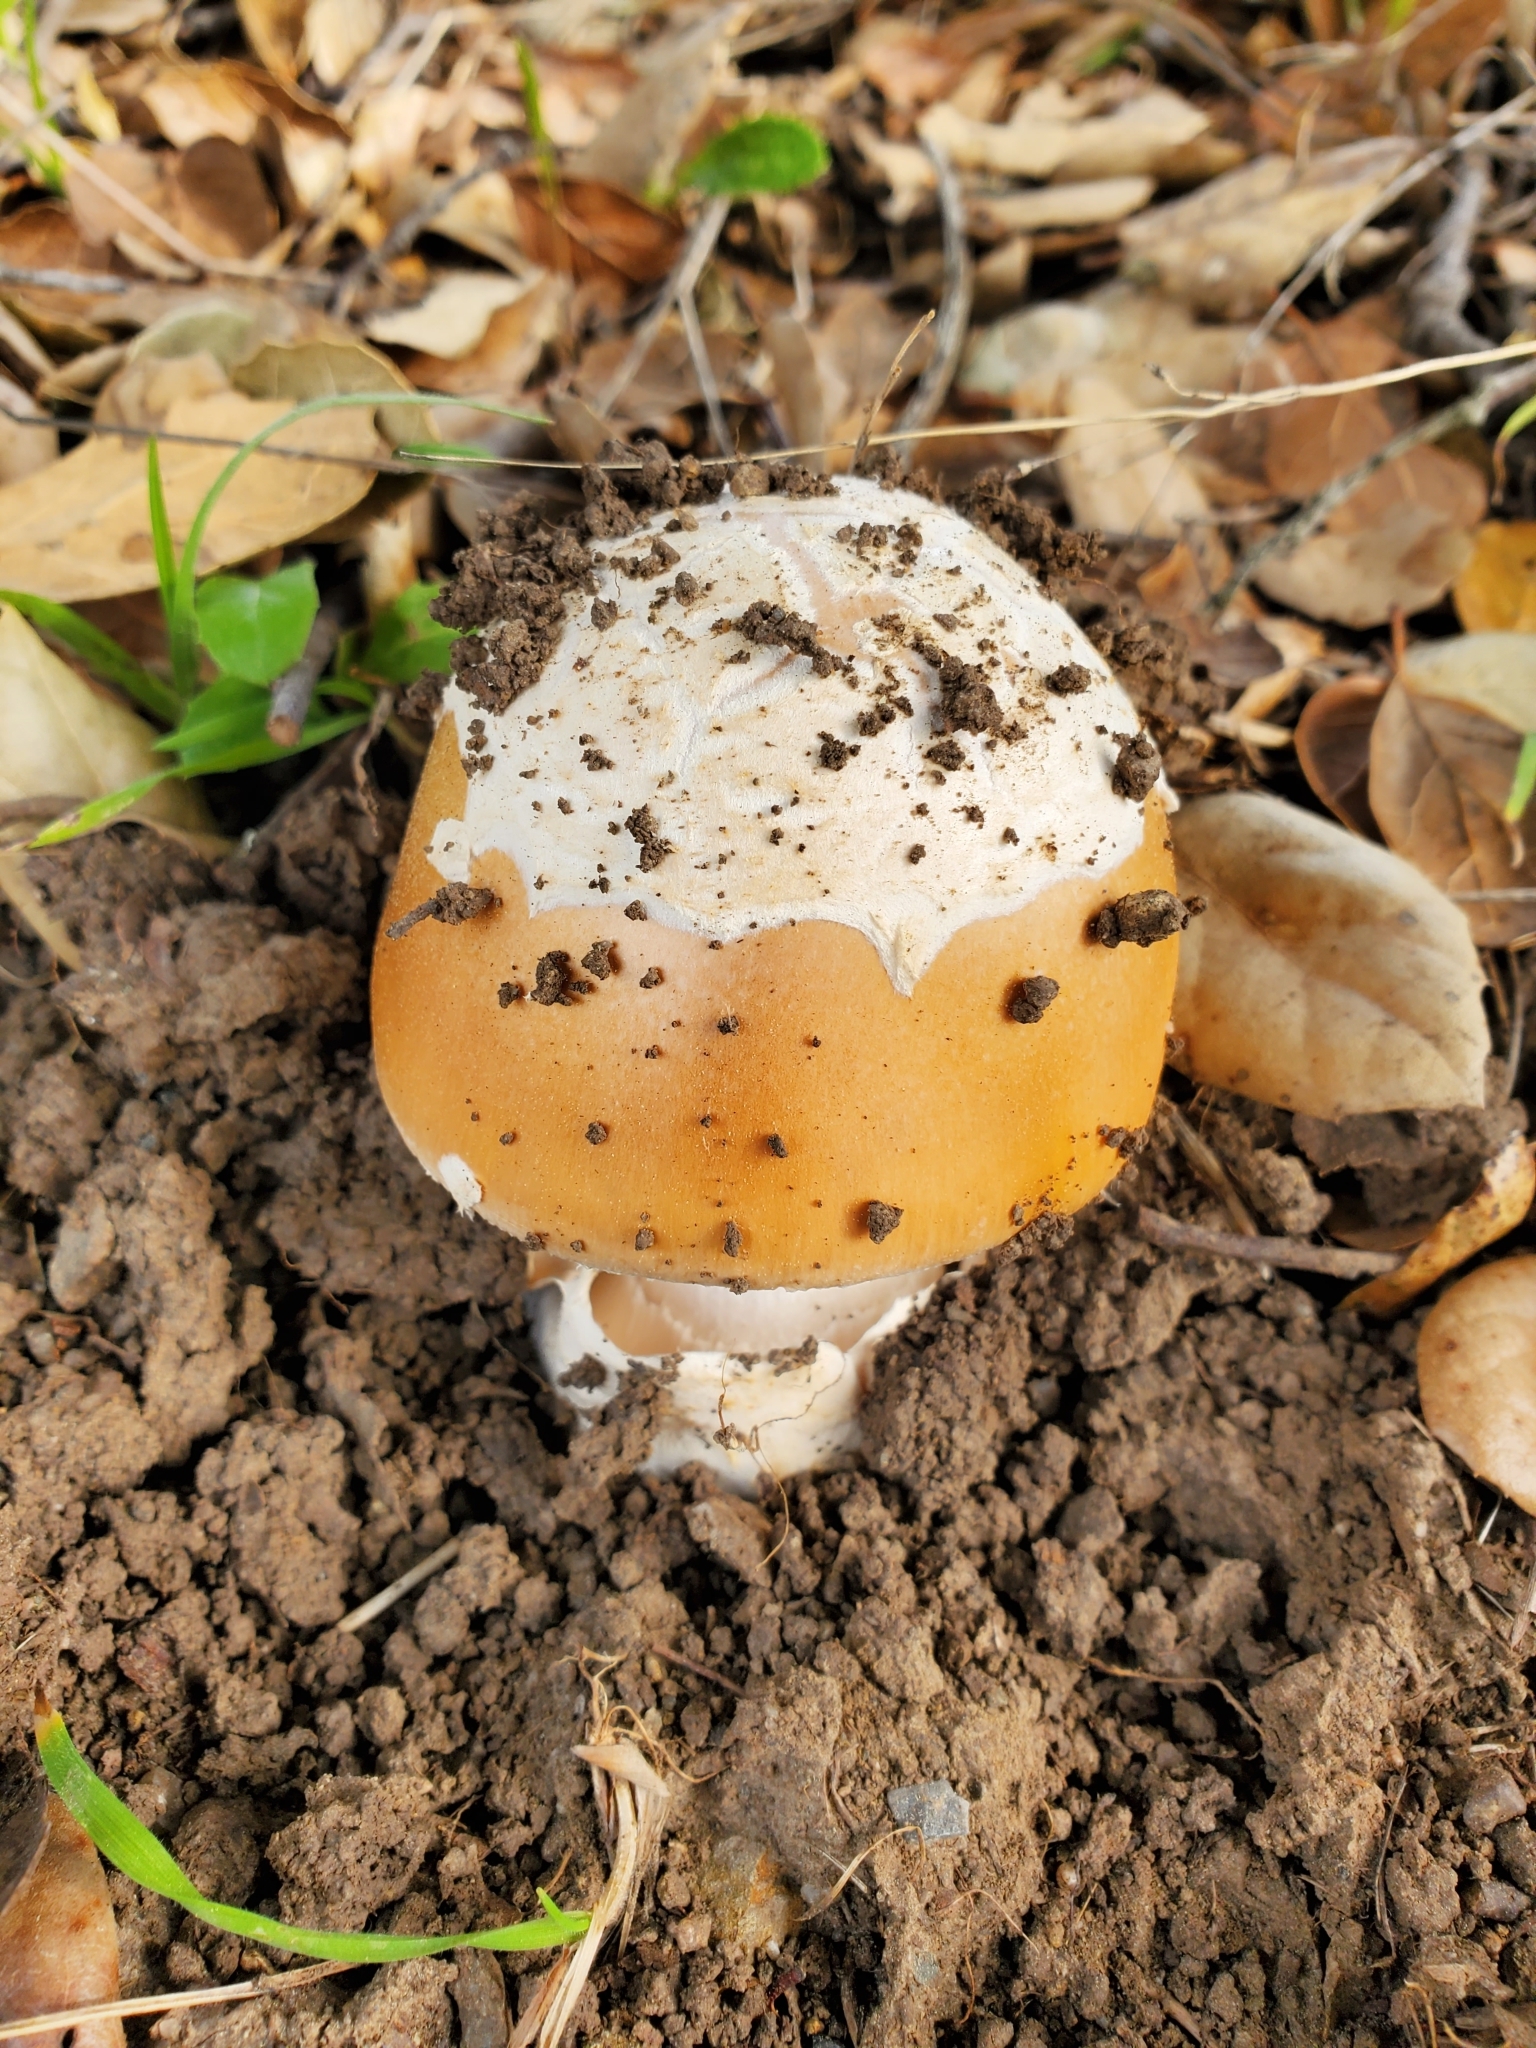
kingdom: Fungi
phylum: Basidiomycota
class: Agaricomycetes
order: Agaricales
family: Amanitaceae
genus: Amanita
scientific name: Amanita velosa
